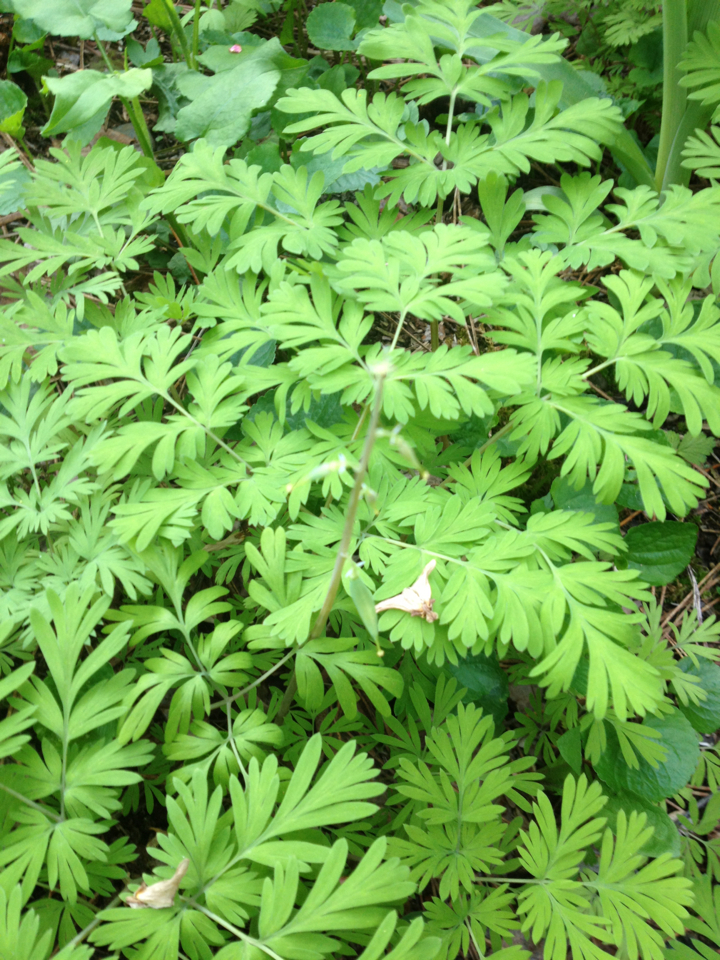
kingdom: Plantae
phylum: Tracheophyta
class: Magnoliopsida
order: Ranunculales
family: Papaveraceae
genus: Dicentra
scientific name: Dicentra cucullaria
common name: Dutchman's breeches
